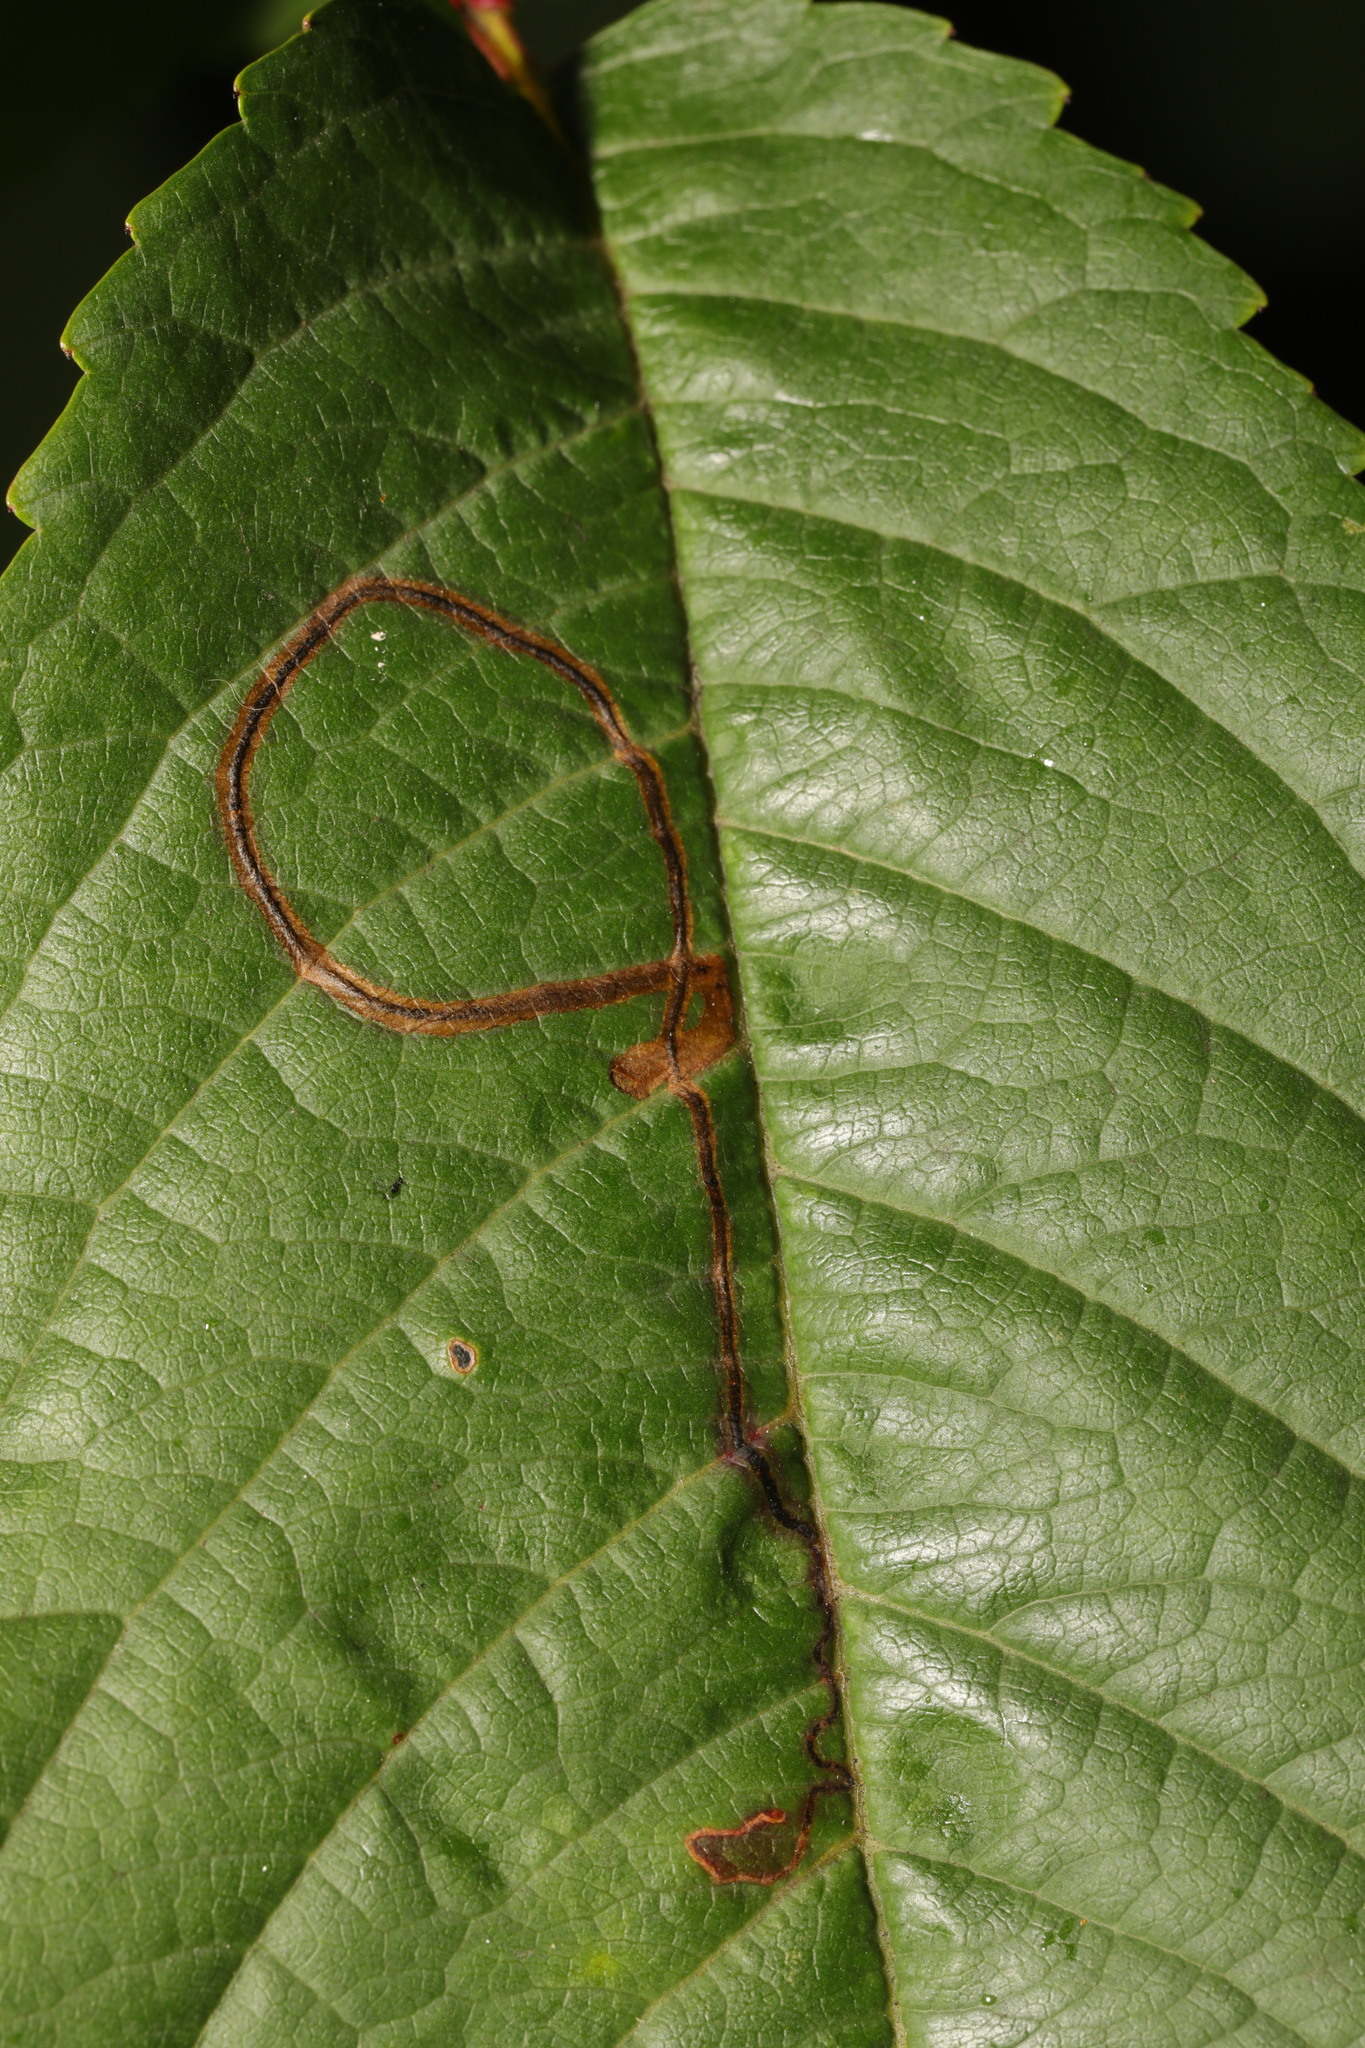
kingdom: Animalia
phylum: Arthropoda
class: Insecta
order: Lepidoptera
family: Lyonetiidae
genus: Lyonetia
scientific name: Lyonetia clerkella
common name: Apple leaf miner
